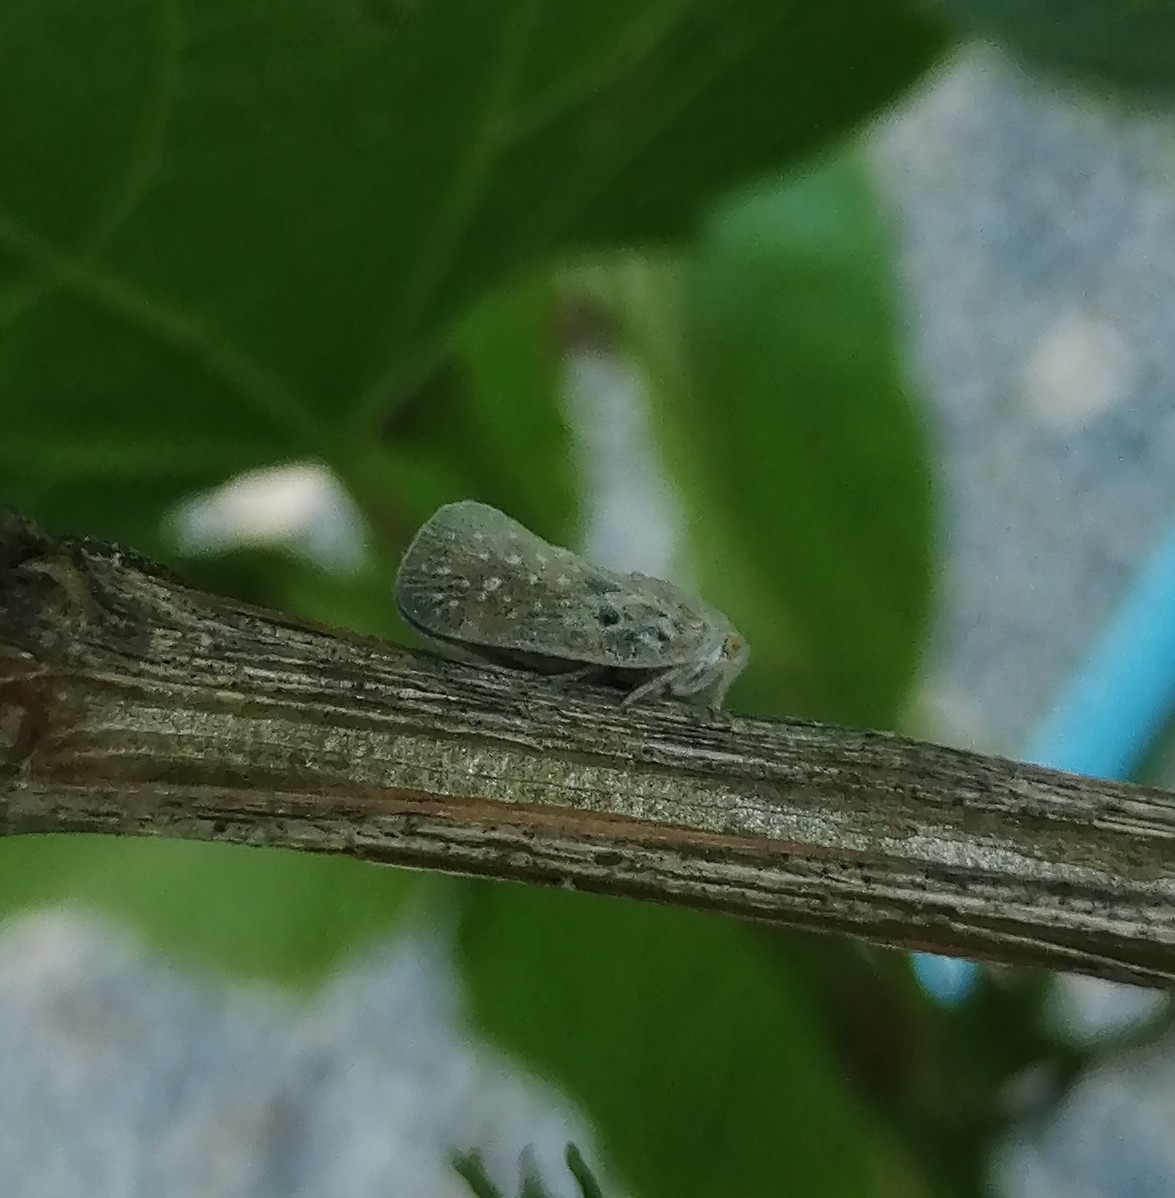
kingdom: Animalia
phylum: Arthropoda
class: Insecta
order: Hemiptera
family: Flatidae
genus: Metcalfa
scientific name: Metcalfa pruinosa
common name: Citrus flatid planthopper
